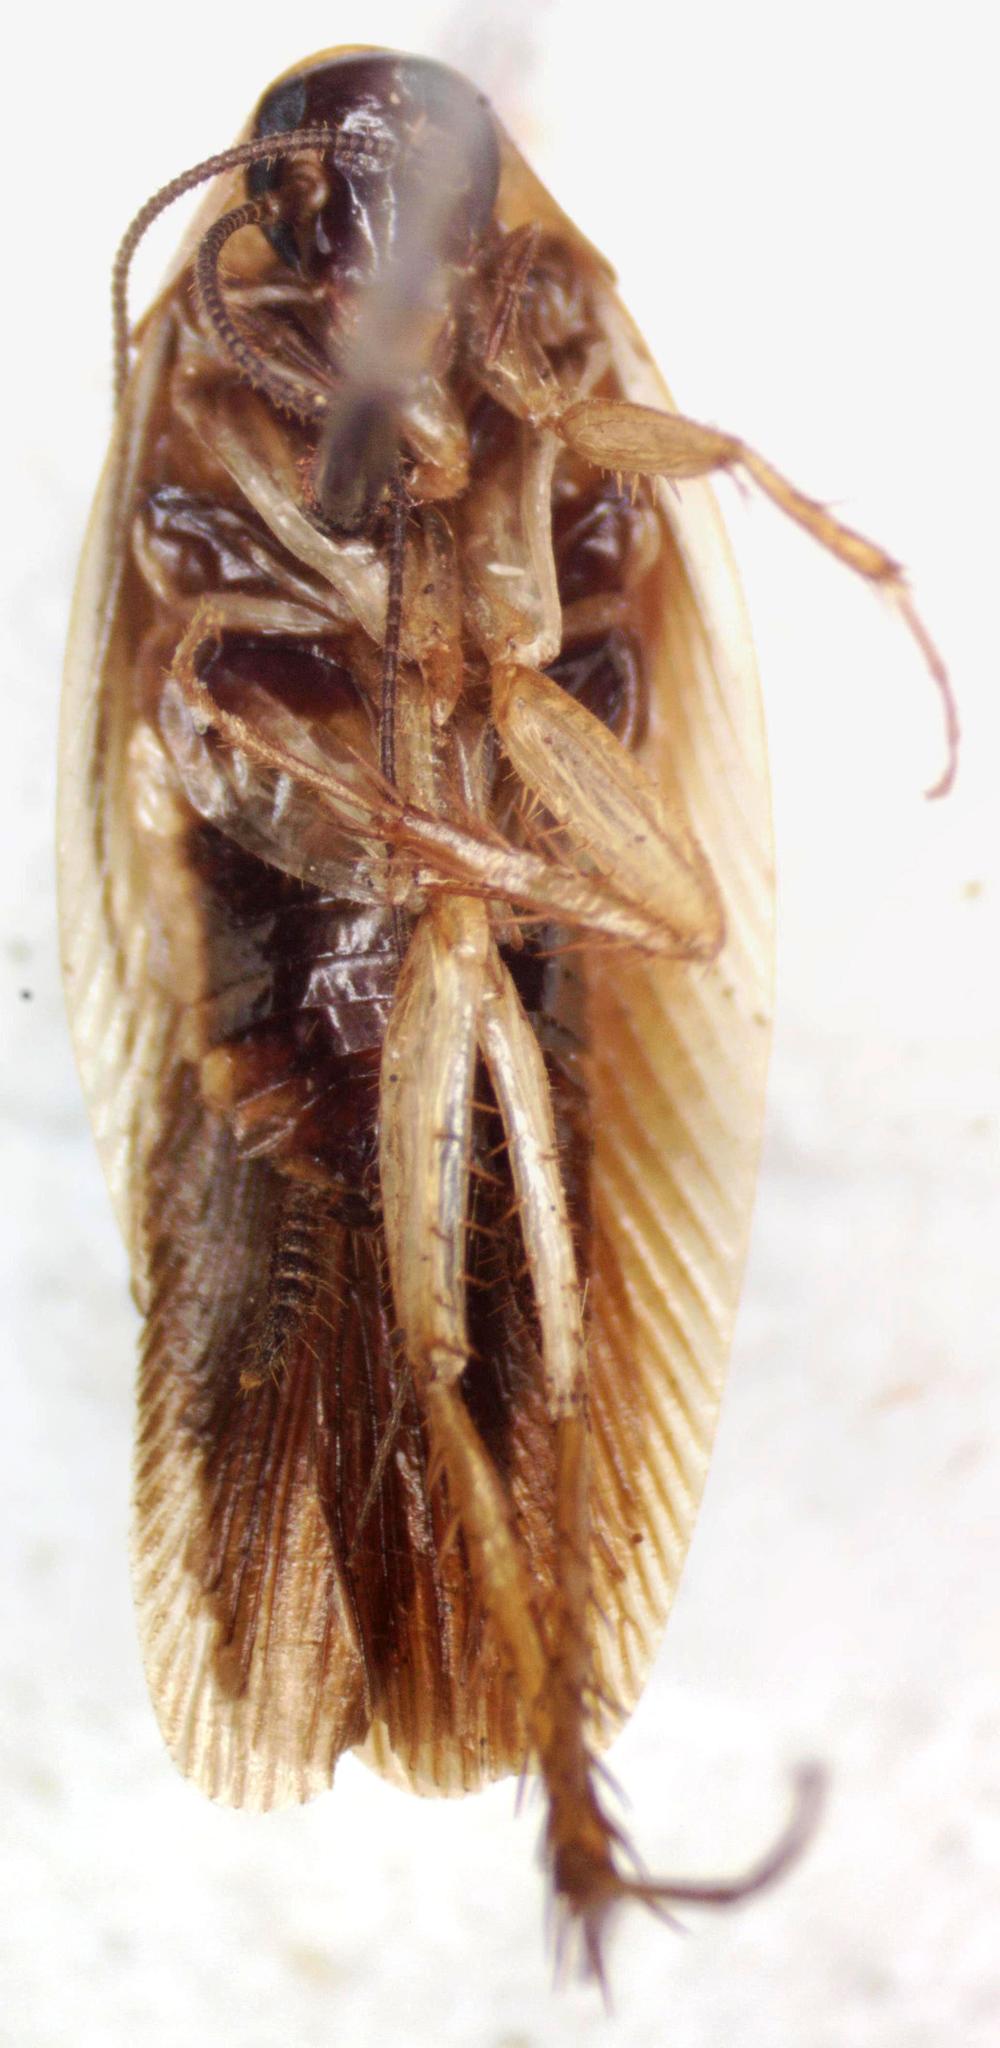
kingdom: Animalia
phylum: Arthropoda
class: Insecta
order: Blattodea
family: Ectobiidae
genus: Chromatonotus
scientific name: Chromatonotus quarequae
